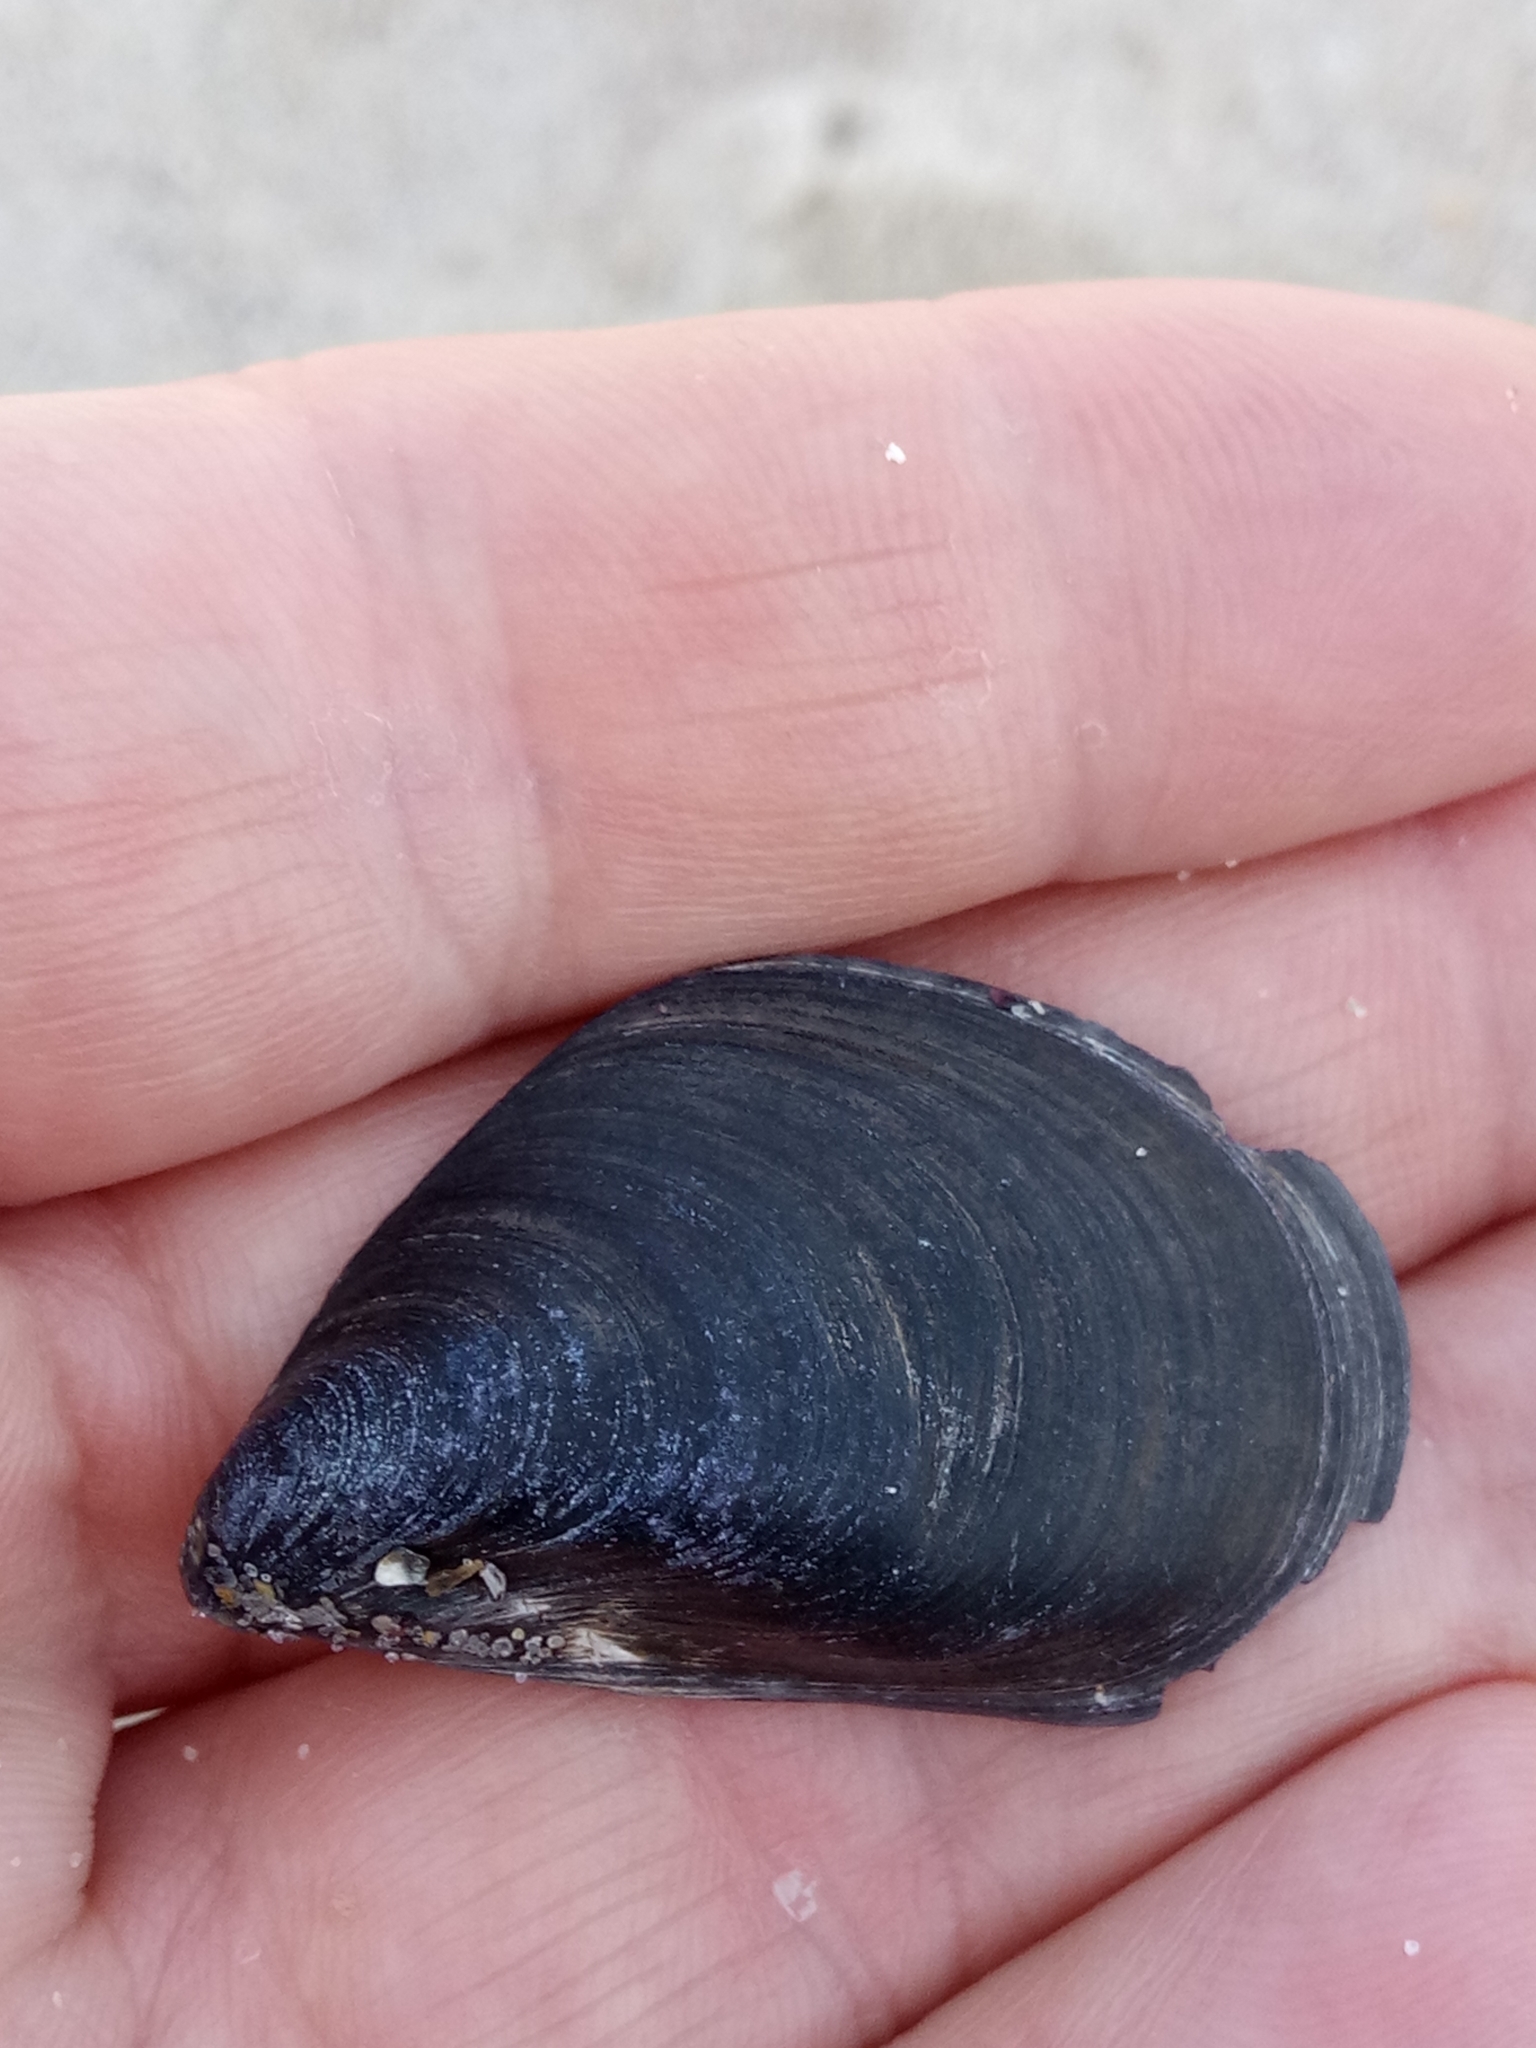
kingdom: Animalia
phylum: Mollusca
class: Bivalvia
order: Mytilida
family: Mytilidae
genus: Mytilus
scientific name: Mytilus galloprovincialis
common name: Mediterranean mussel
